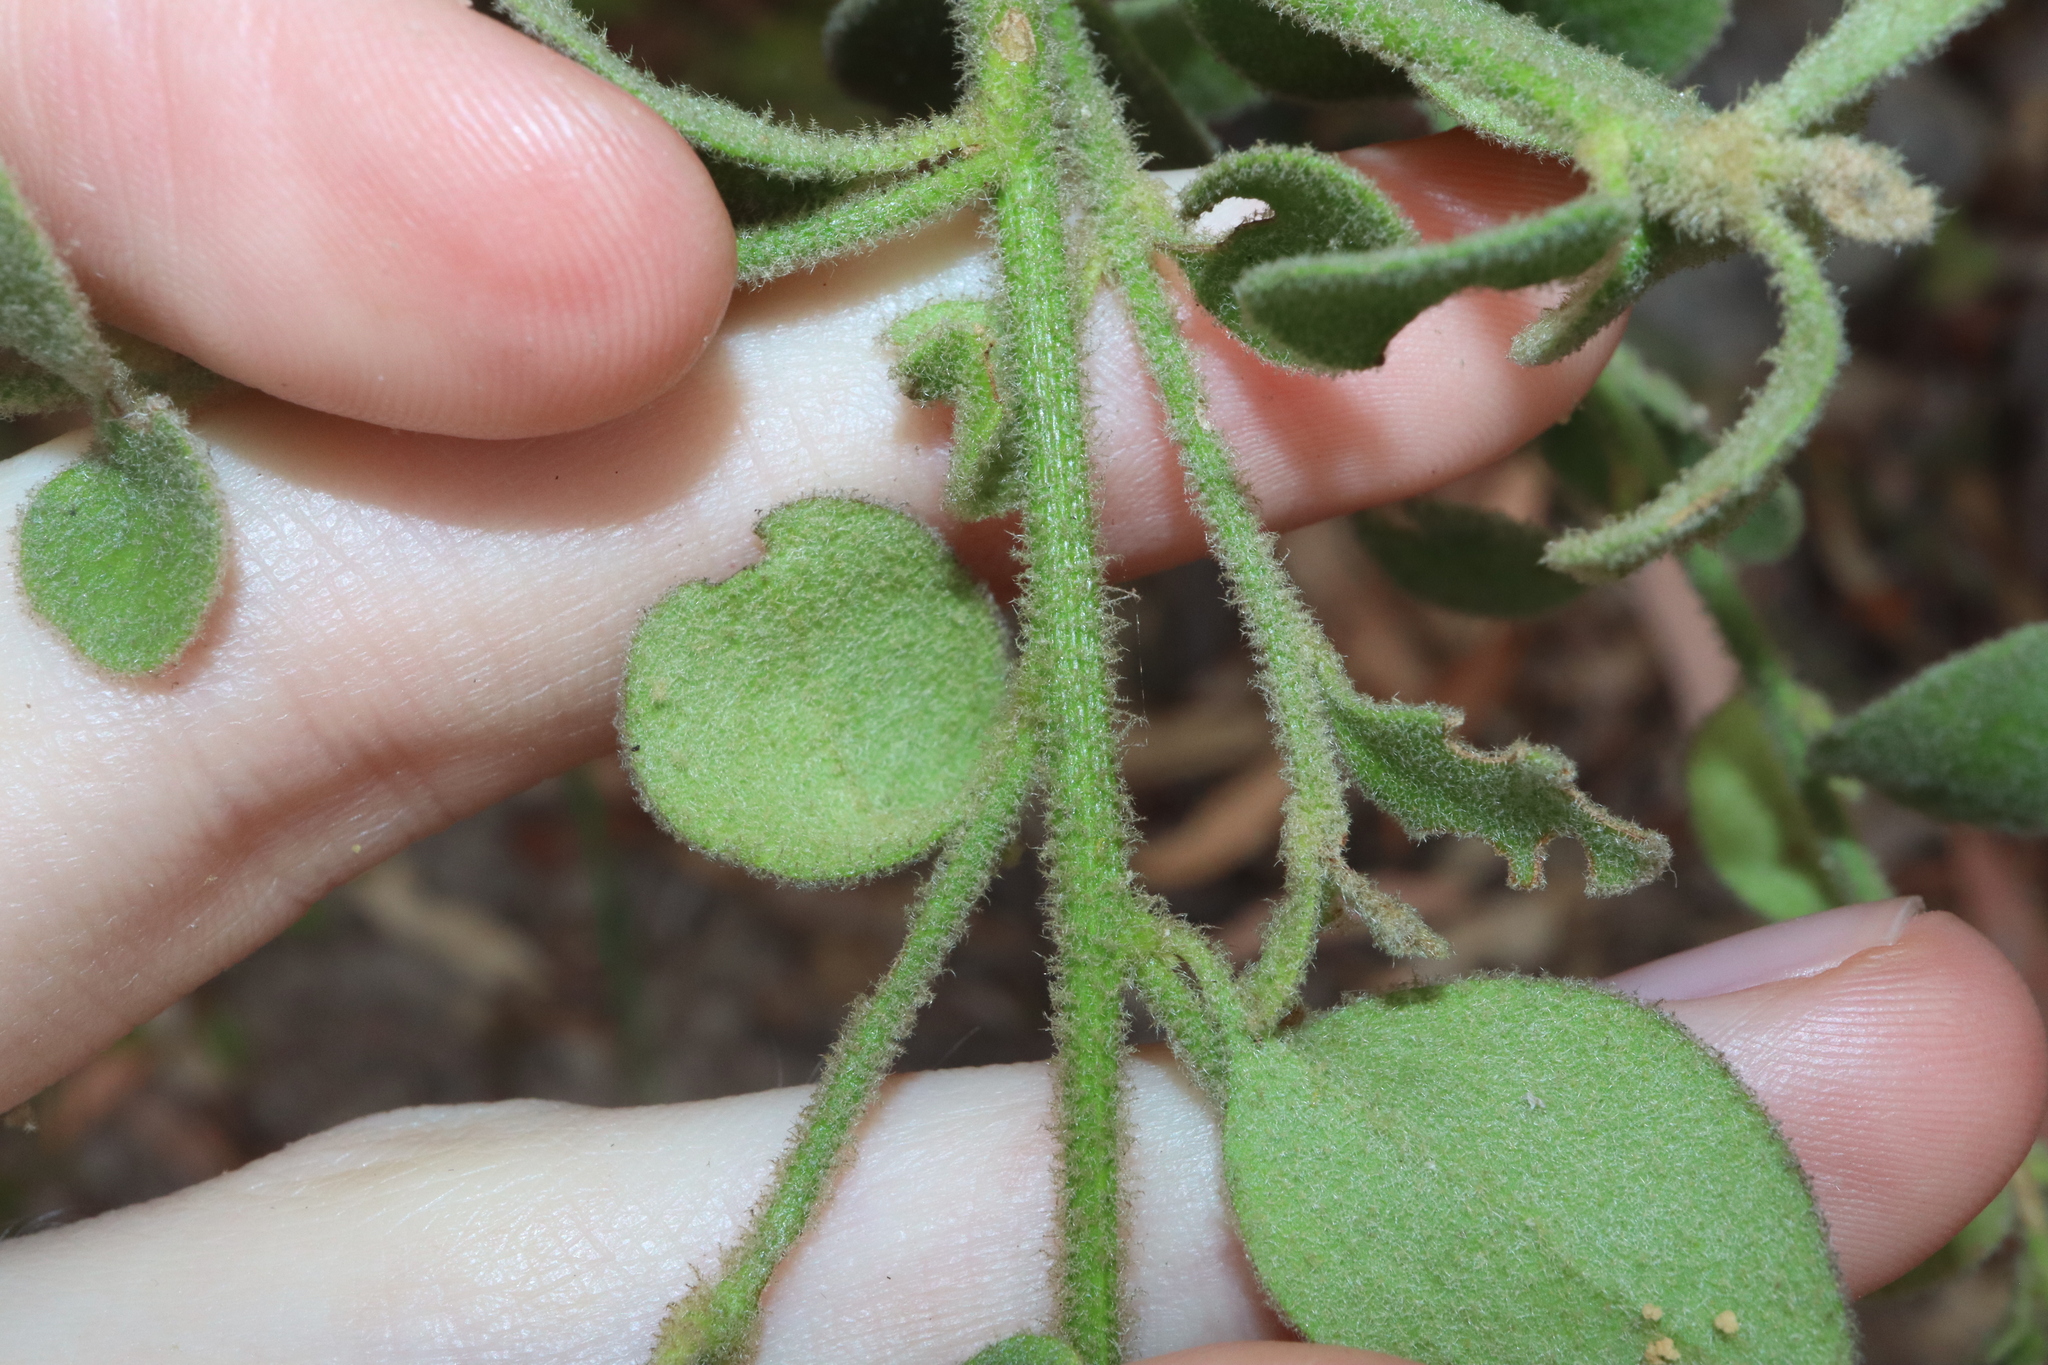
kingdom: Plantae
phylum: Tracheophyta
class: Magnoliopsida
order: Asterales
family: Goodeniaceae
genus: Dampiera
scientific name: Dampiera purpurea
